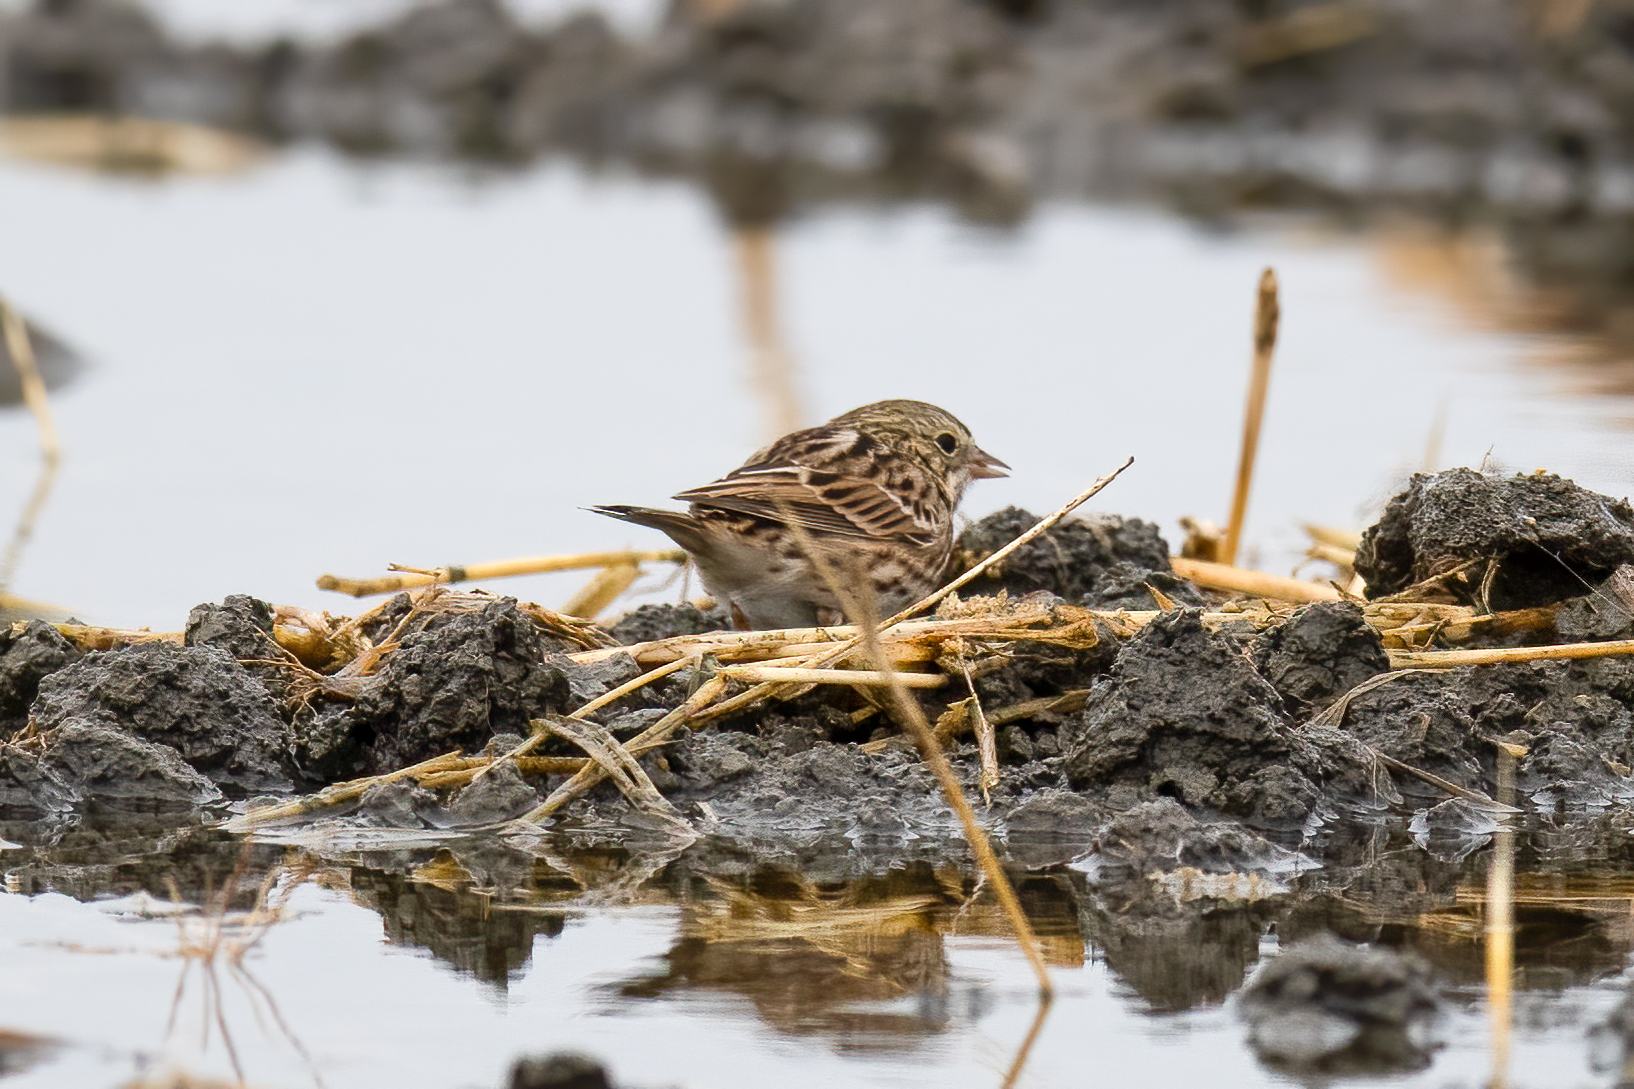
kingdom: Animalia
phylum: Chordata
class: Aves
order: Passeriformes
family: Passerellidae
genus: Passerculus
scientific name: Passerculus sandwichensis
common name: Savannah sparrow
